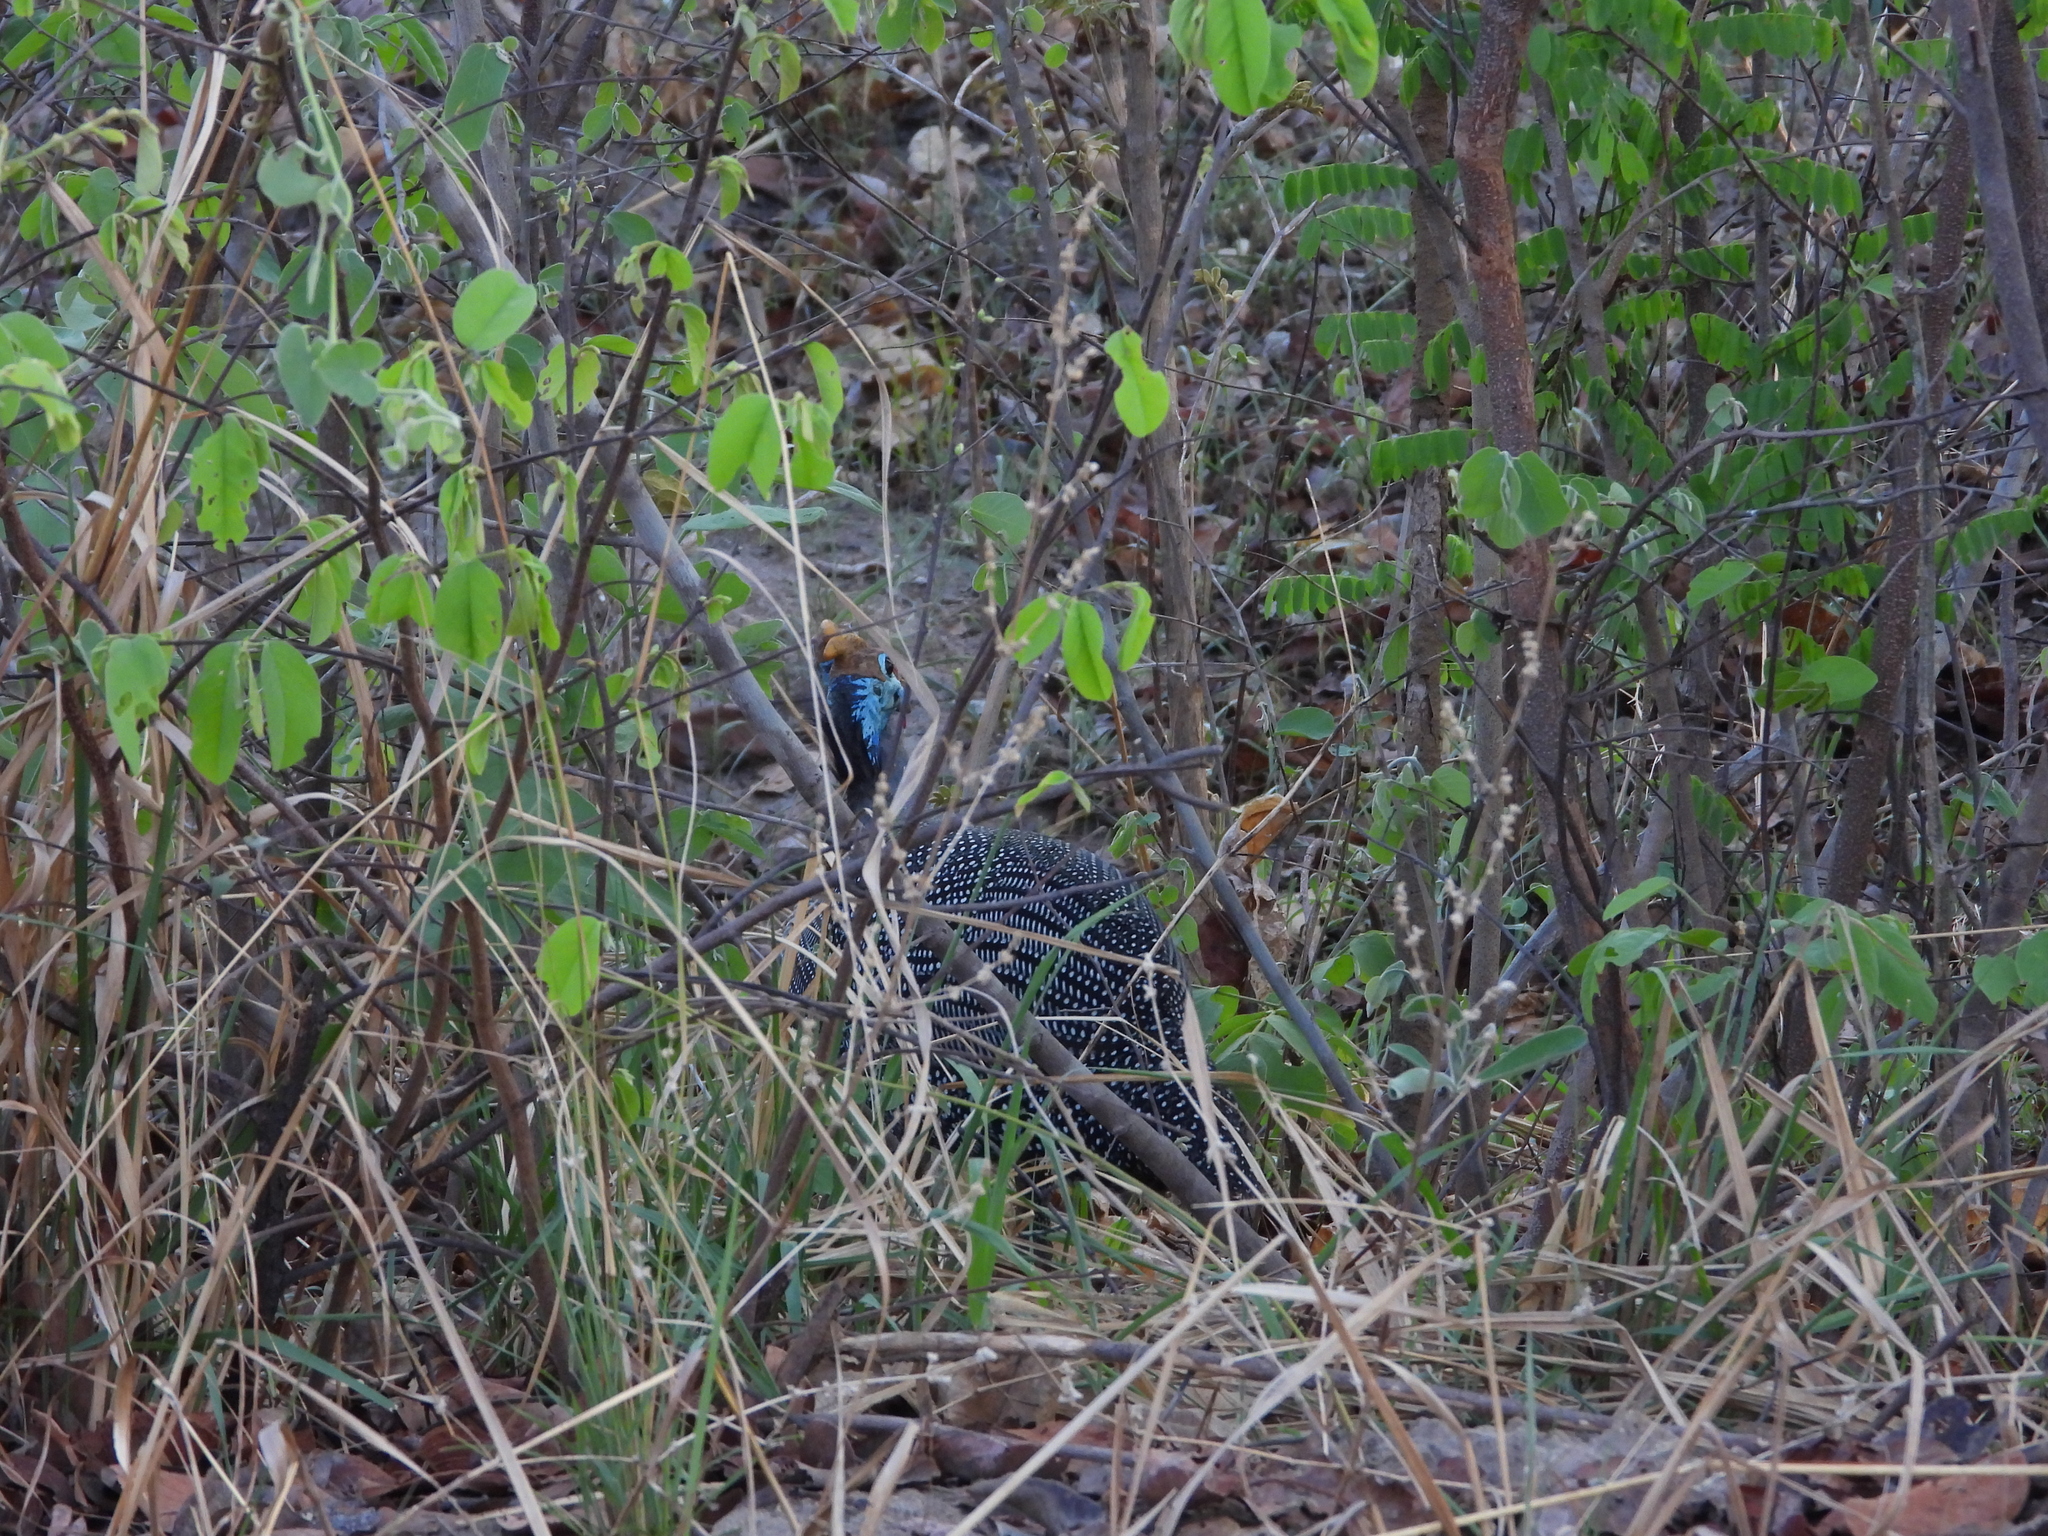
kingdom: Animalia
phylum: Chordata
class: Aves
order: Galliformes
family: Numididae
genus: Numida
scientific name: Numida meleagris
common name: Helmeted guineafowl
